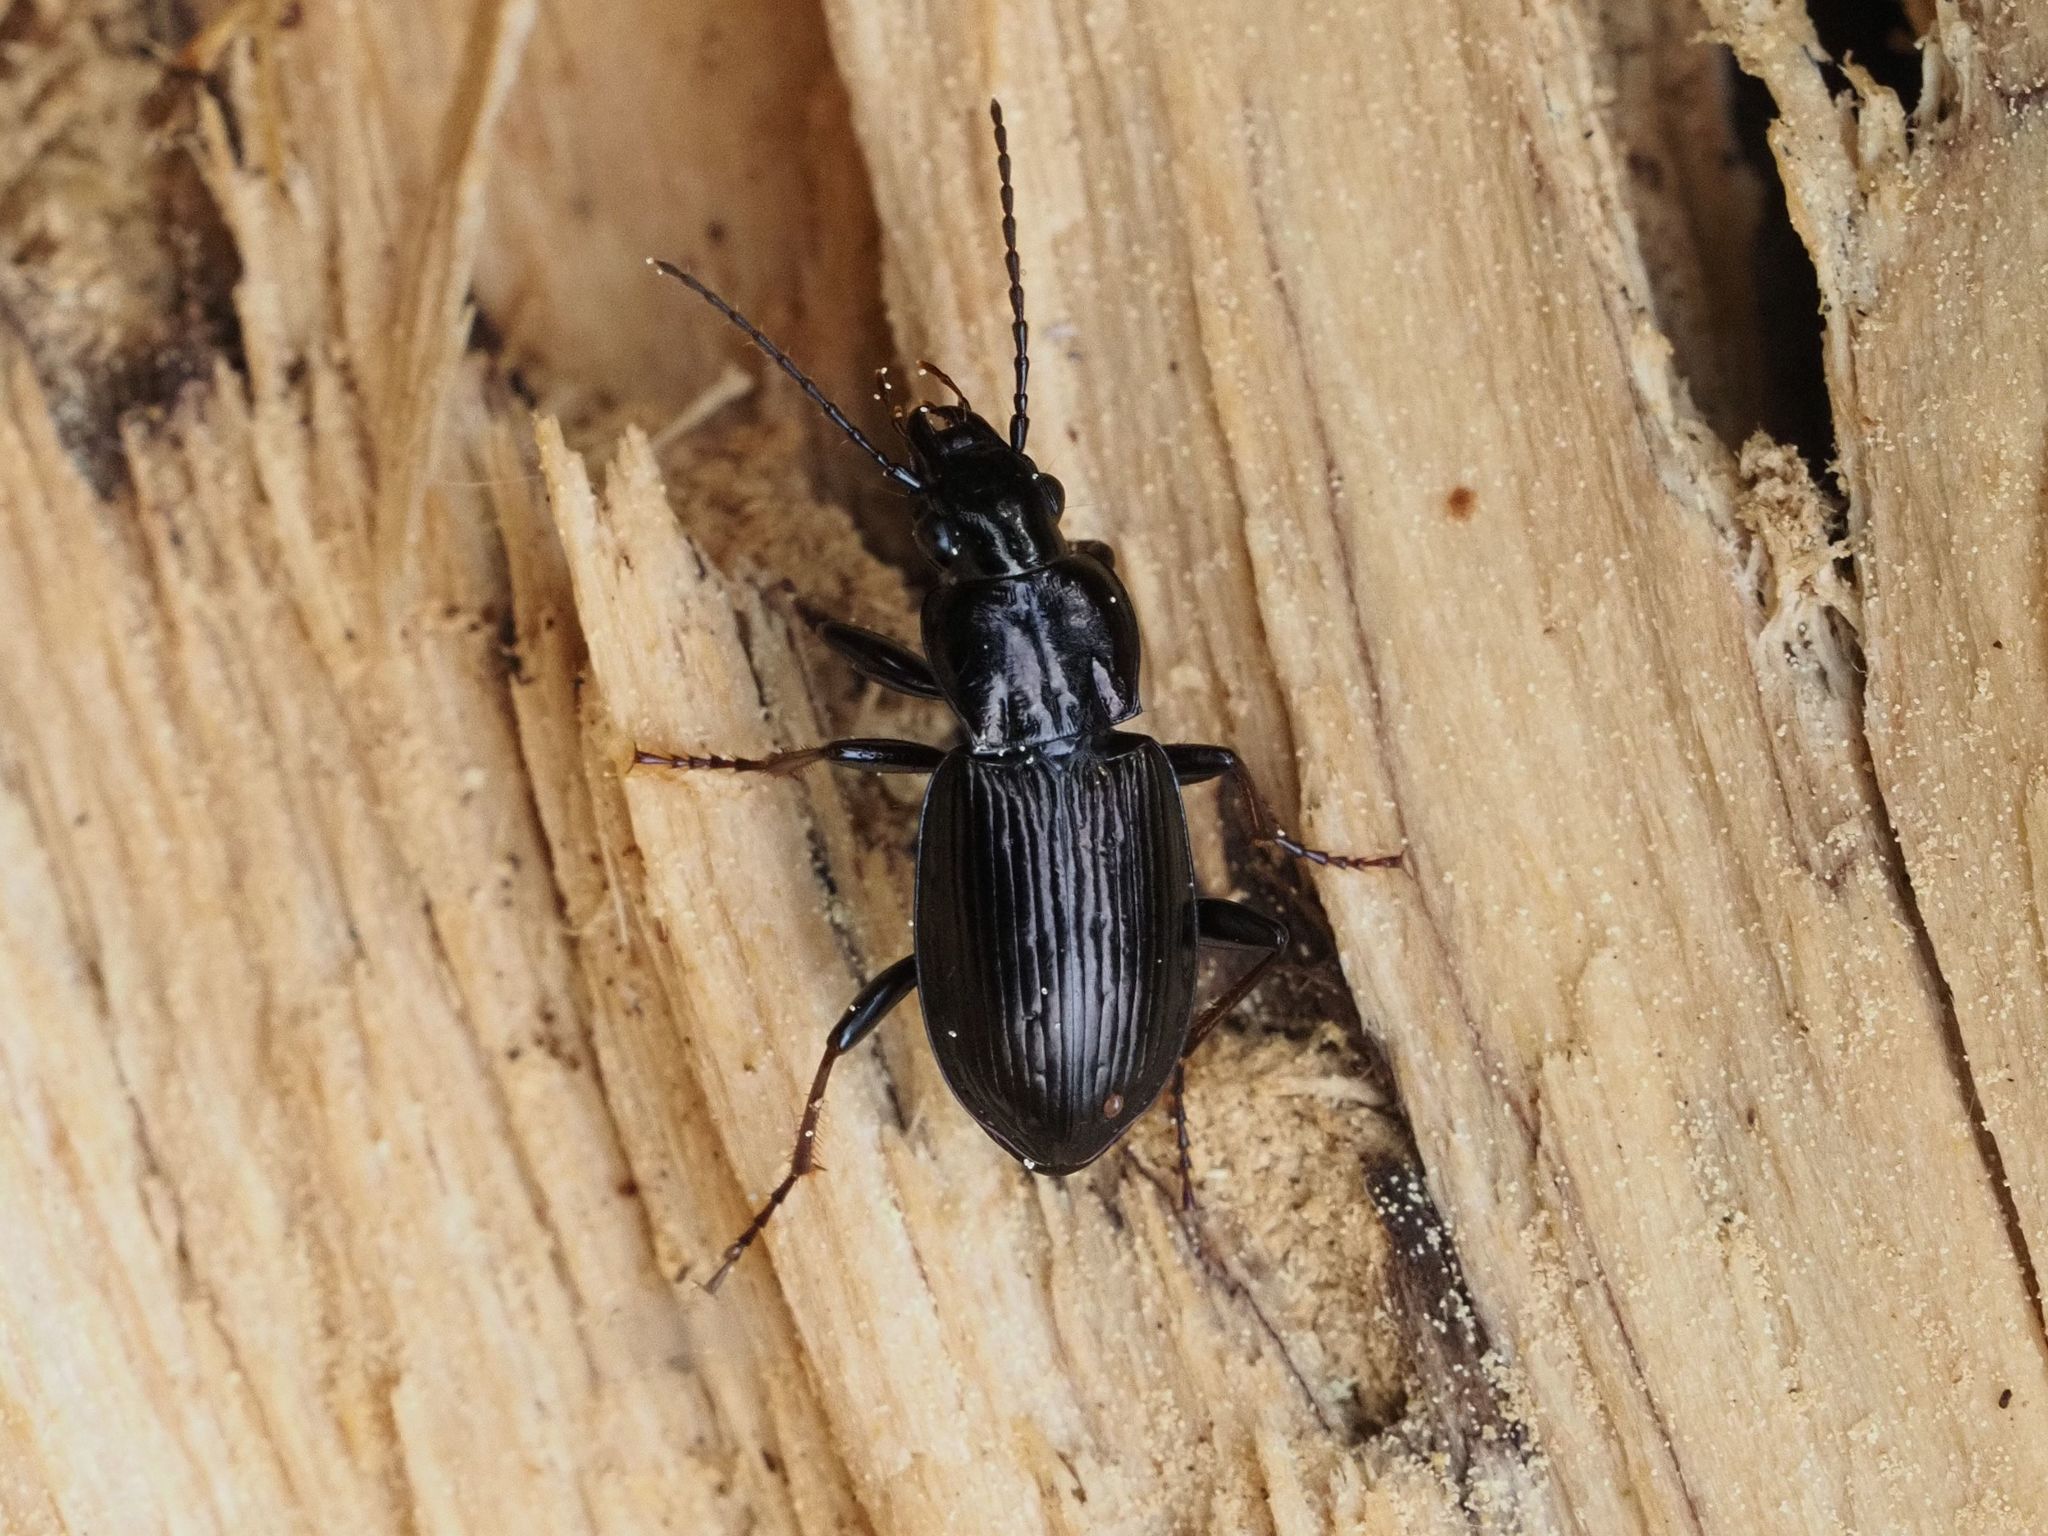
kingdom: Animalia
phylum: Arthropoda
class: Insecta
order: Coleoptera
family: Carabidae
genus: Pterostichus
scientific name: Pterostichus oblongopunctatus
